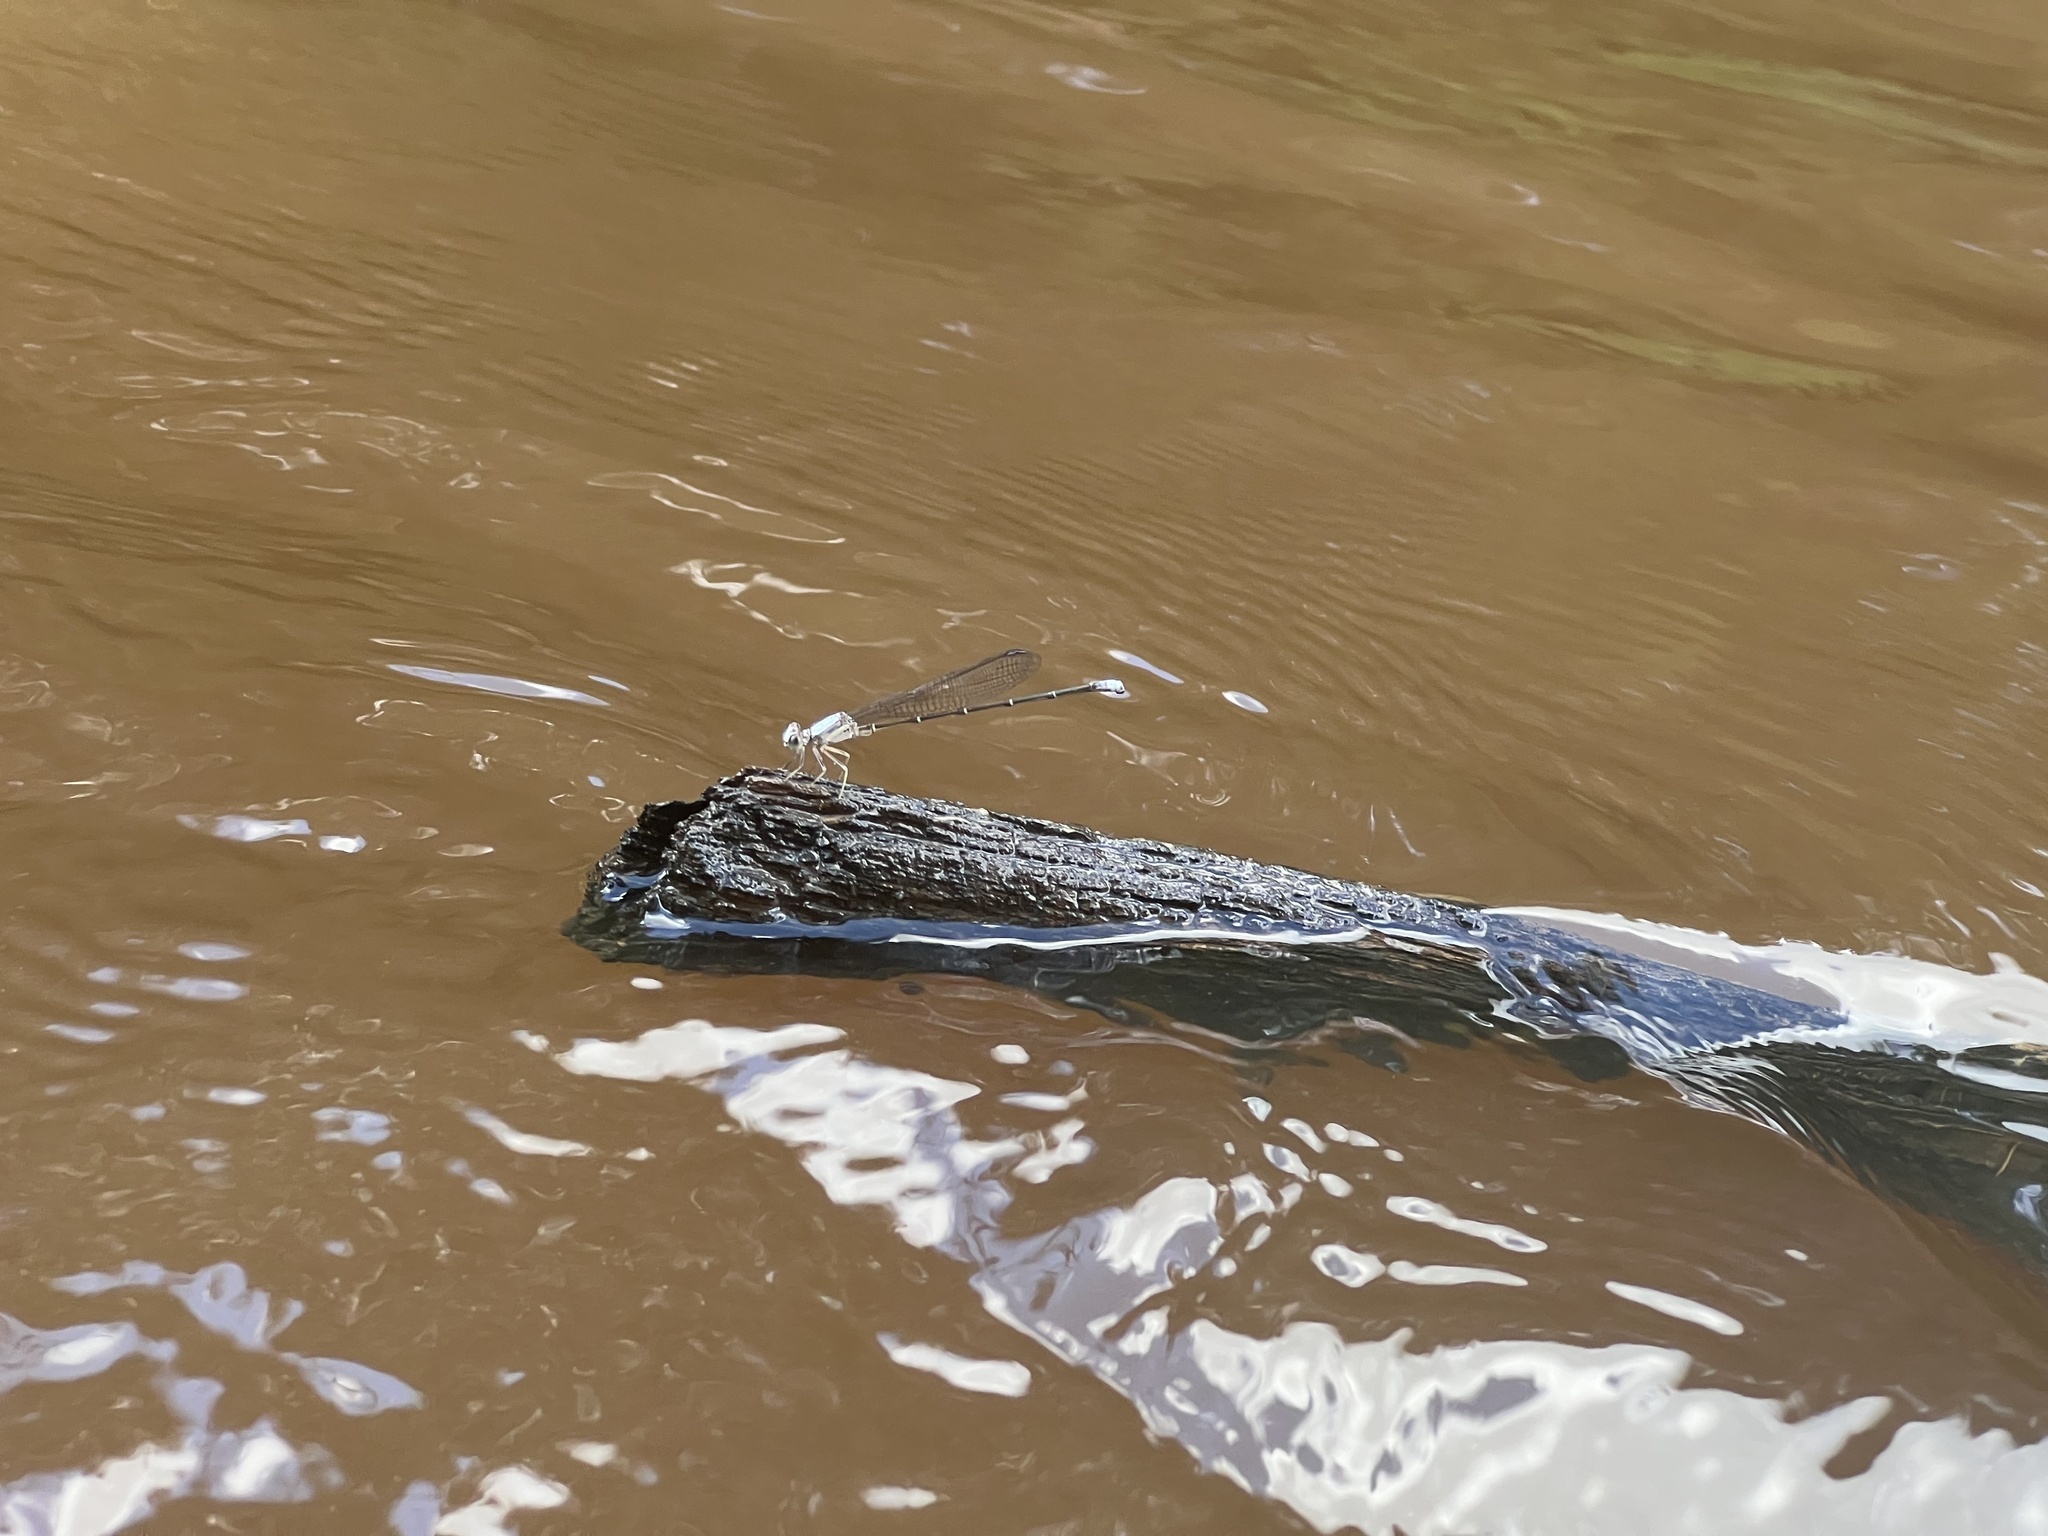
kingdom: Animalia
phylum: Arthropoda
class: Insecta
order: Odonata
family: Coenagrionidae
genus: Argia
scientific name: Argia moesta
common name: Powdered dancer
